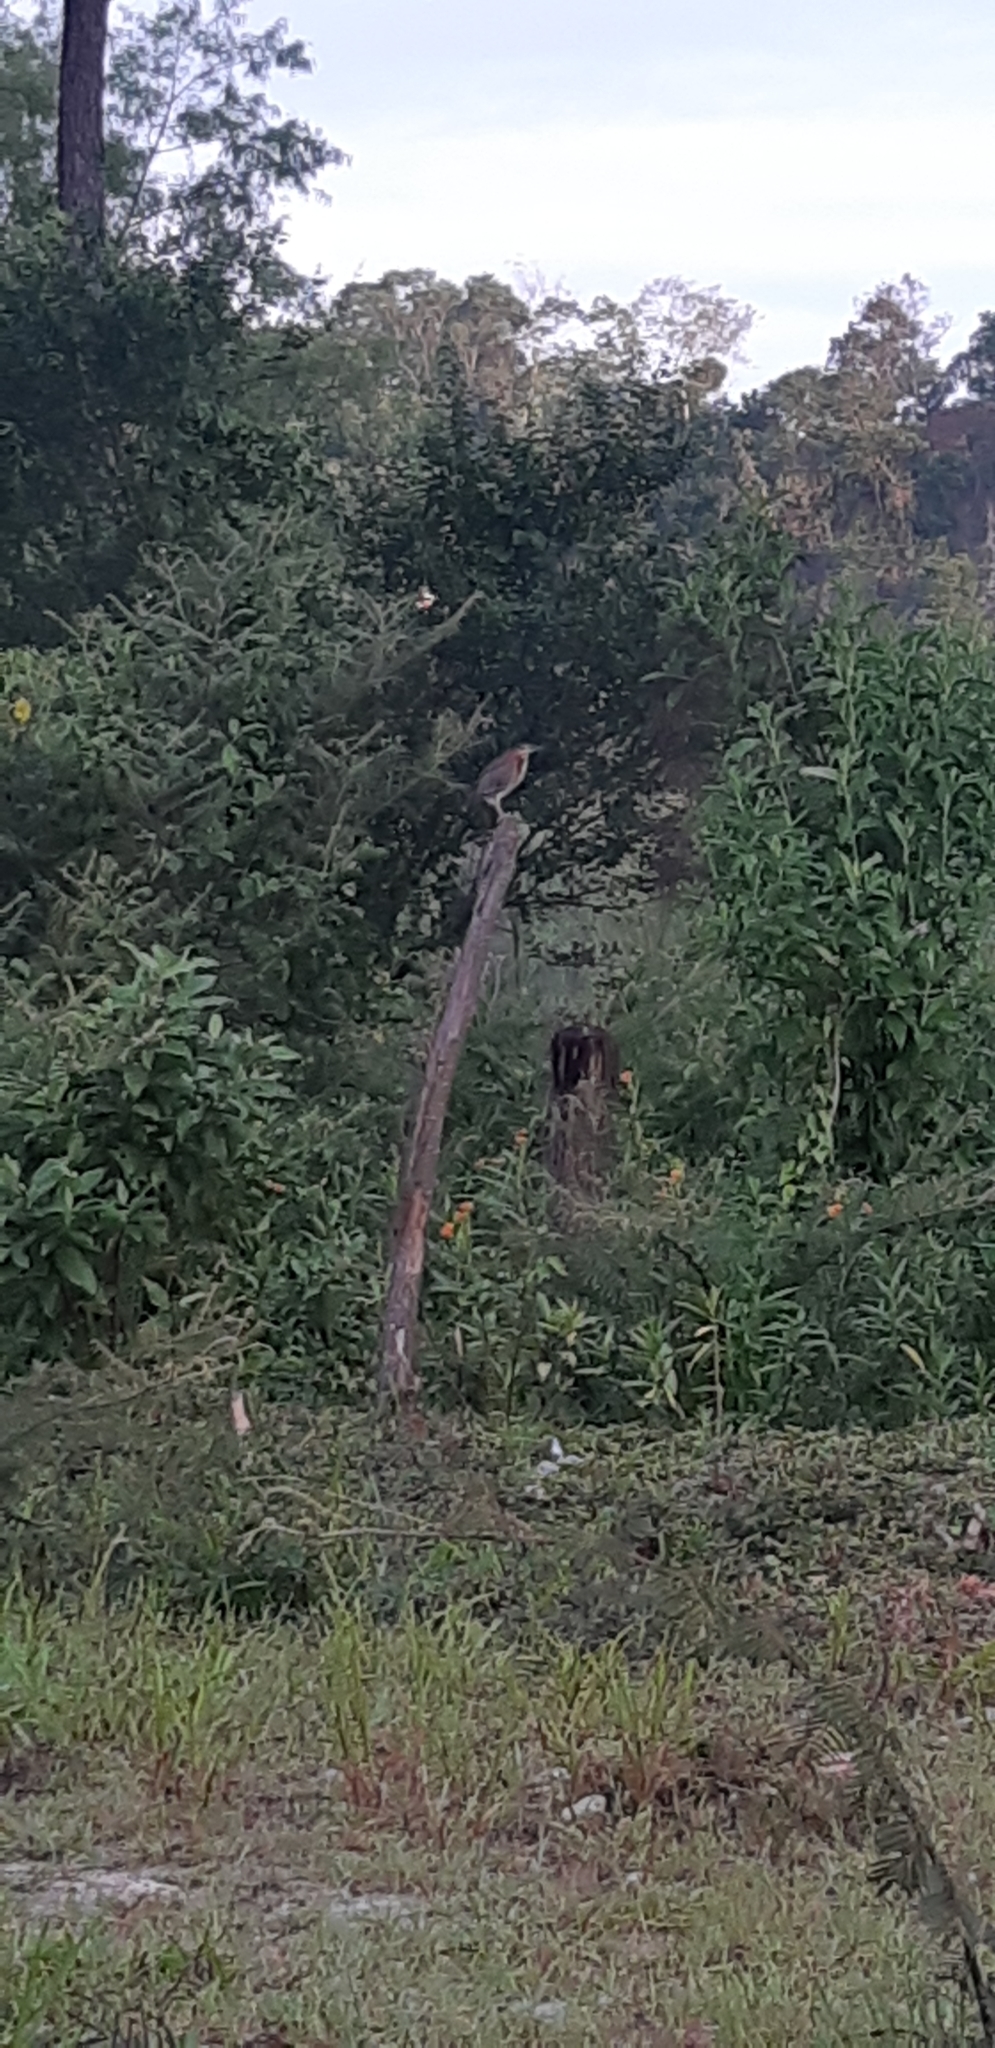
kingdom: Animalia
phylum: Chordata
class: Aves
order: Pelecaniformes
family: Ardeidae
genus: Butorides
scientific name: Butorides virescens
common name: Green heron
